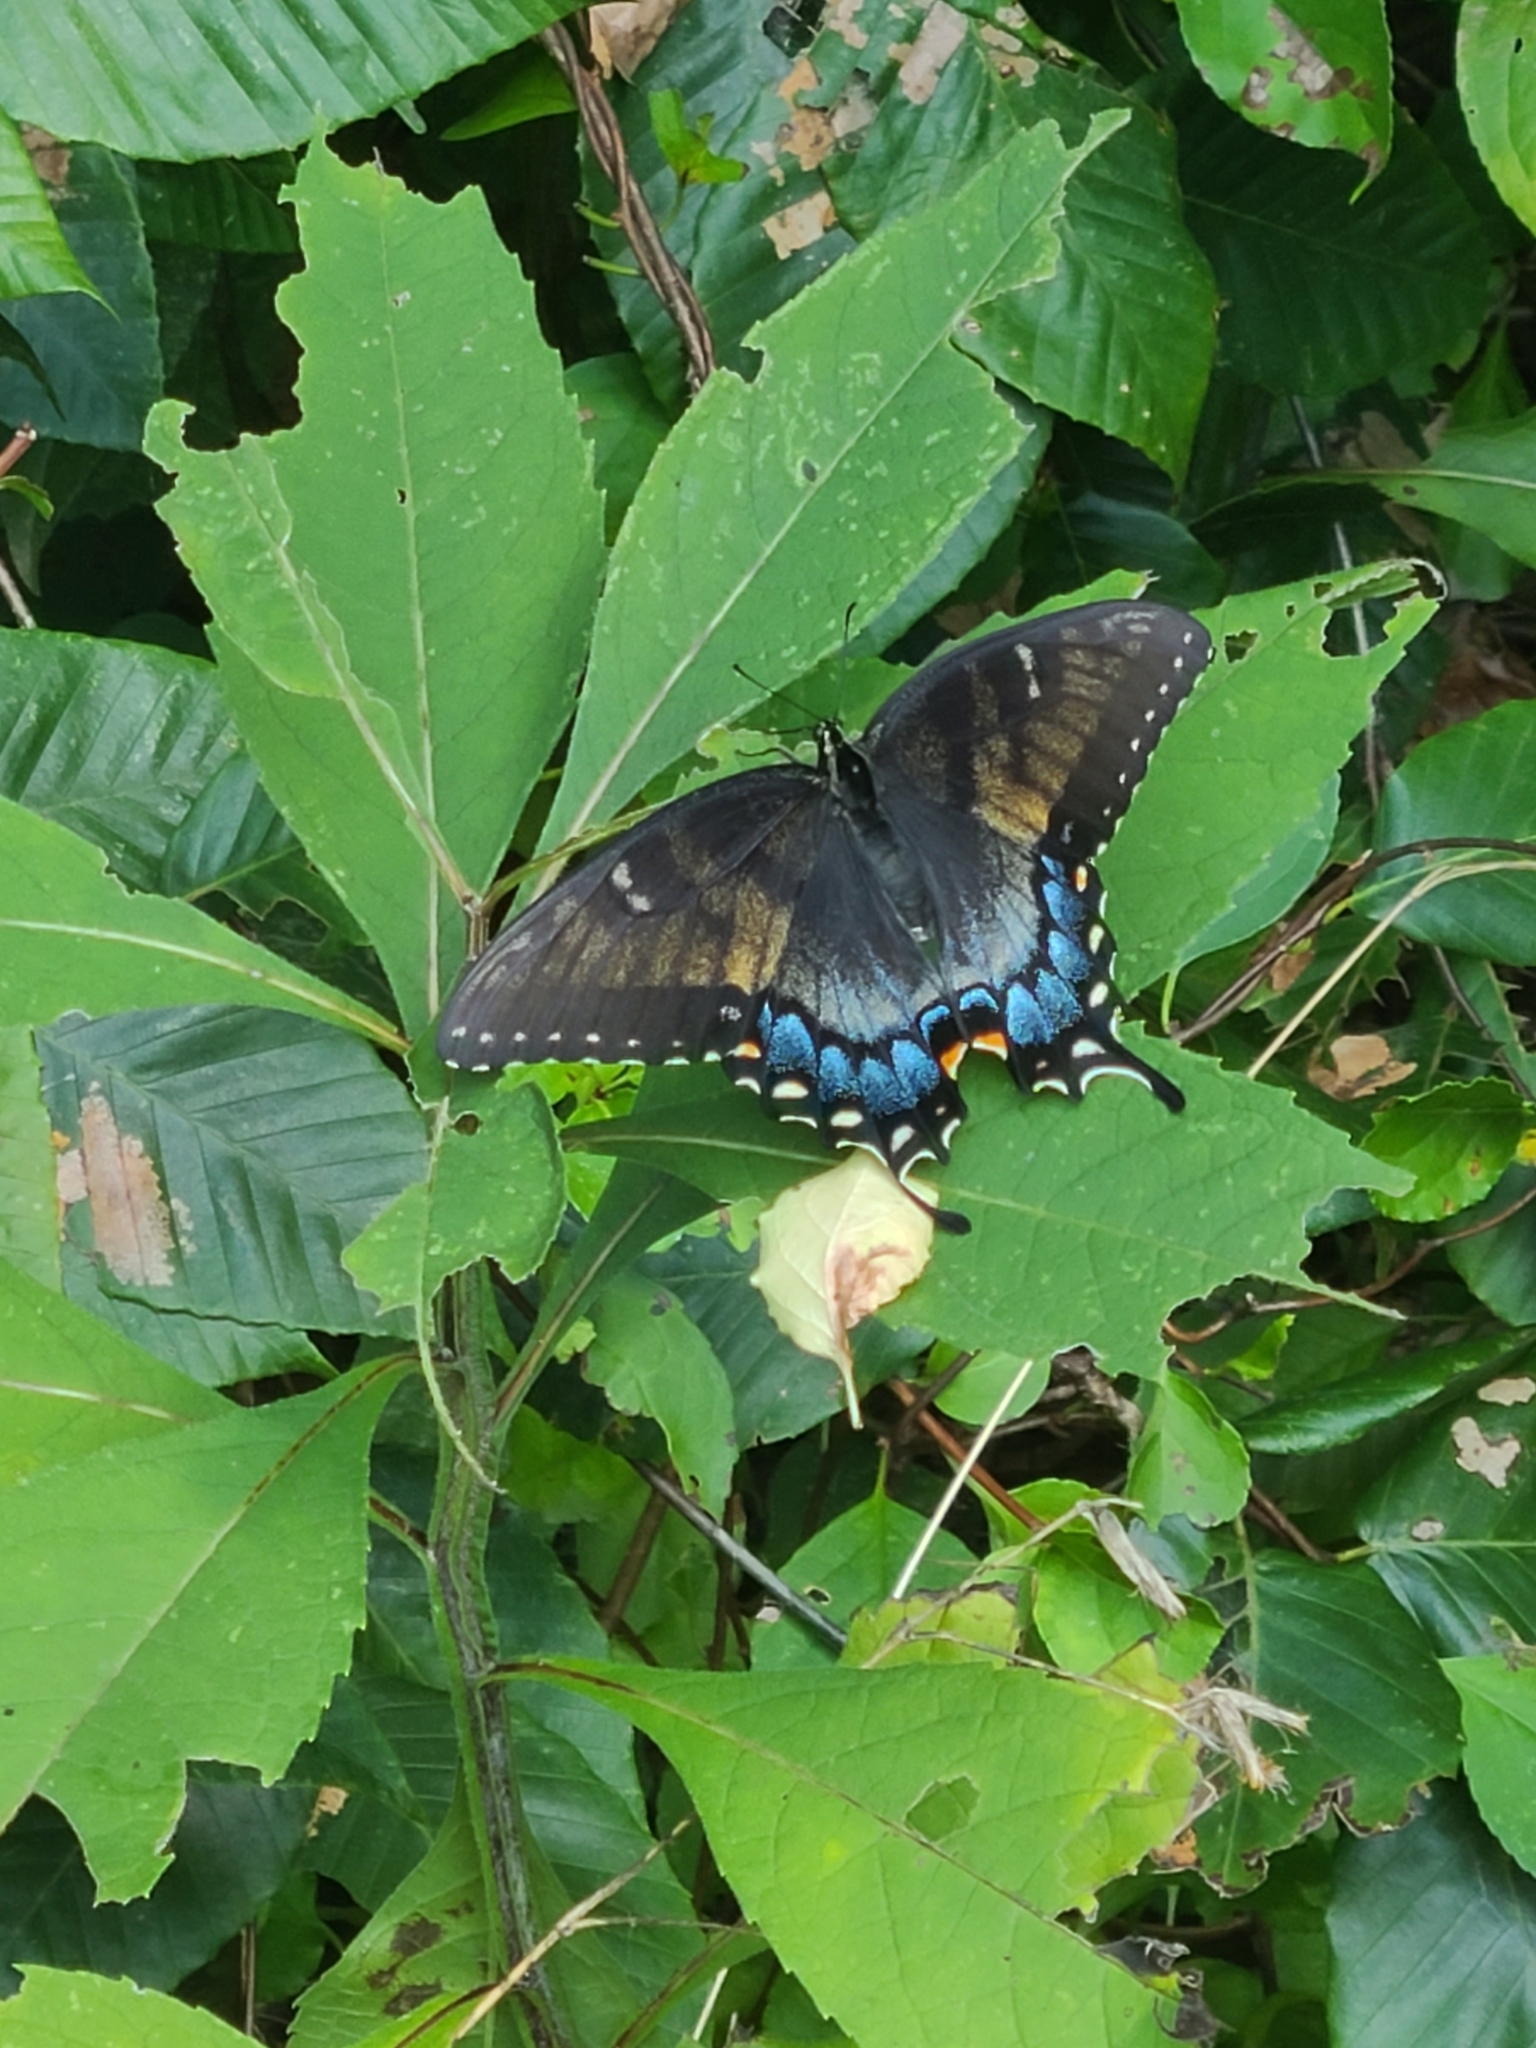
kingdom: Animalia
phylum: Arthropoda
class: Insecta
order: Lepidoptera
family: Papilionidae
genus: Papilio
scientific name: Papilio glaucus
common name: Tiger swallowtail
